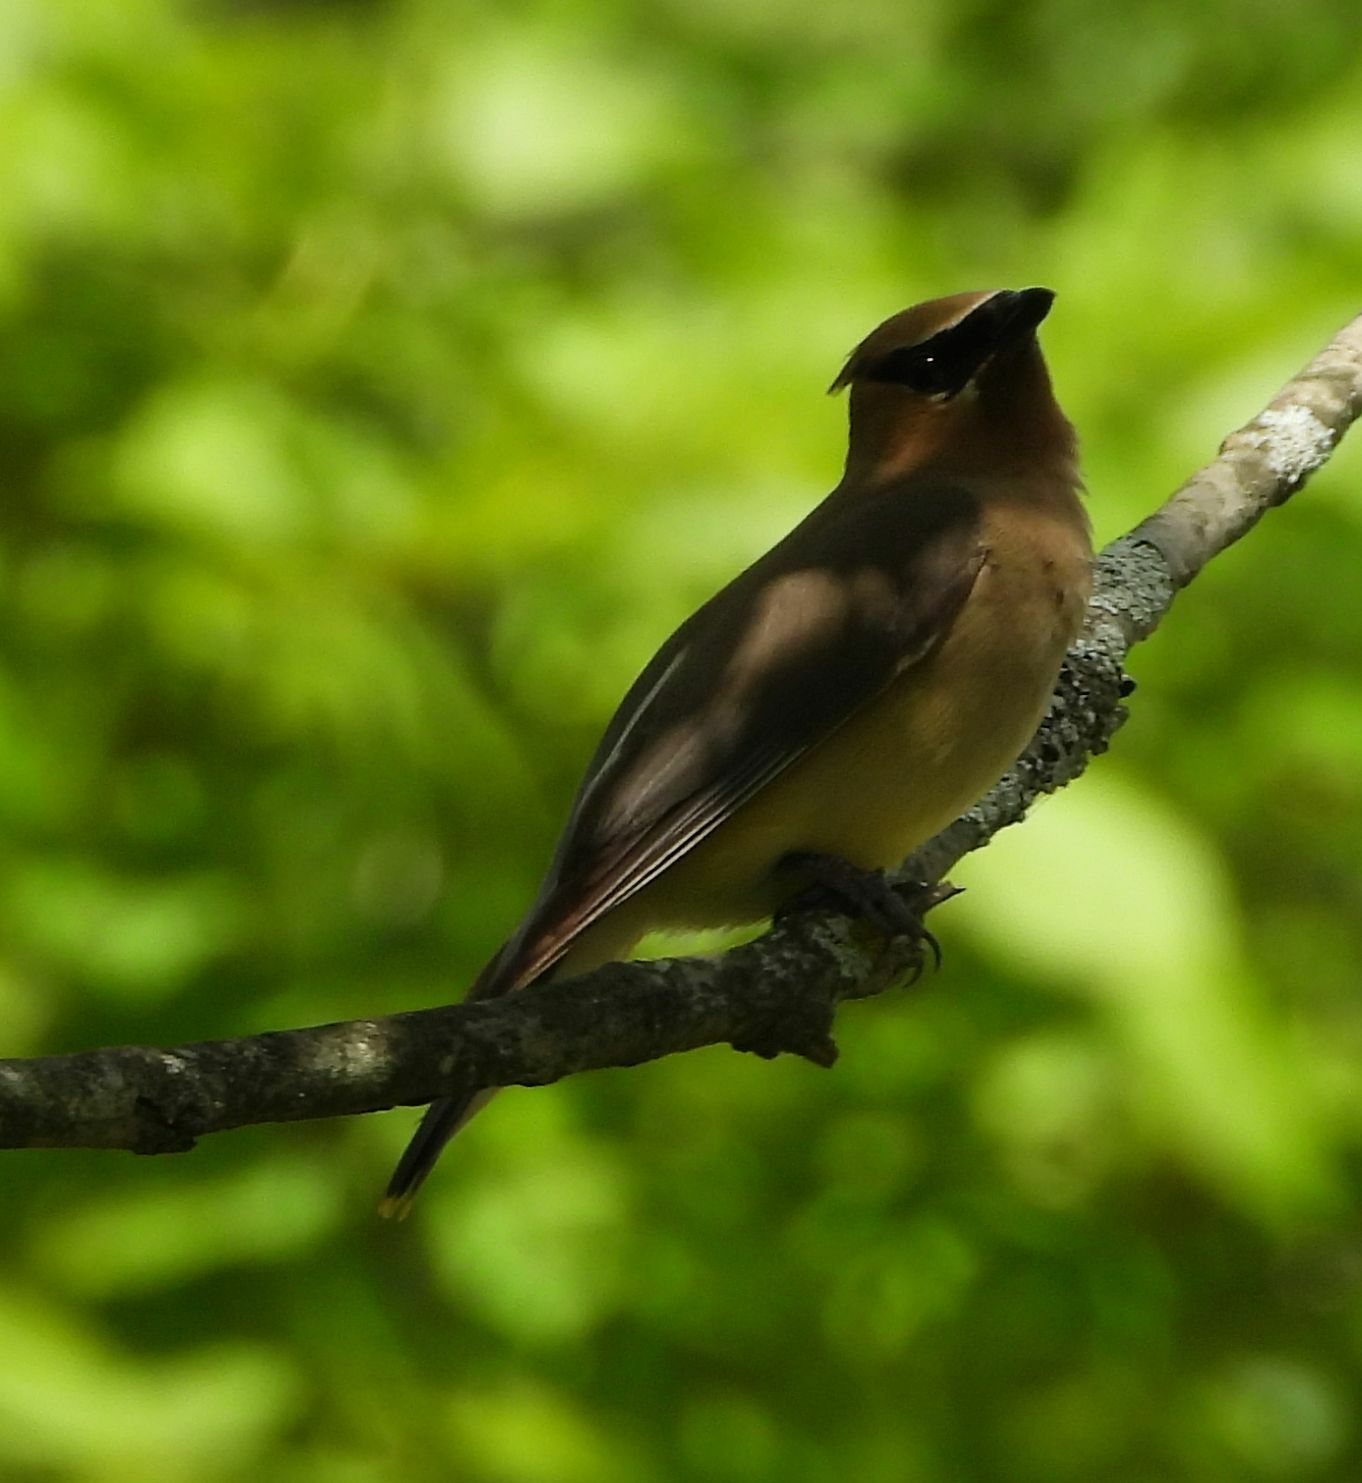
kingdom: Animalia
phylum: Chordata
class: Aves
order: Passeriformes
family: Bombycillidae
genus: Bombycilla
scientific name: Bombycilla cedrorum
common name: Cedar waxwing
